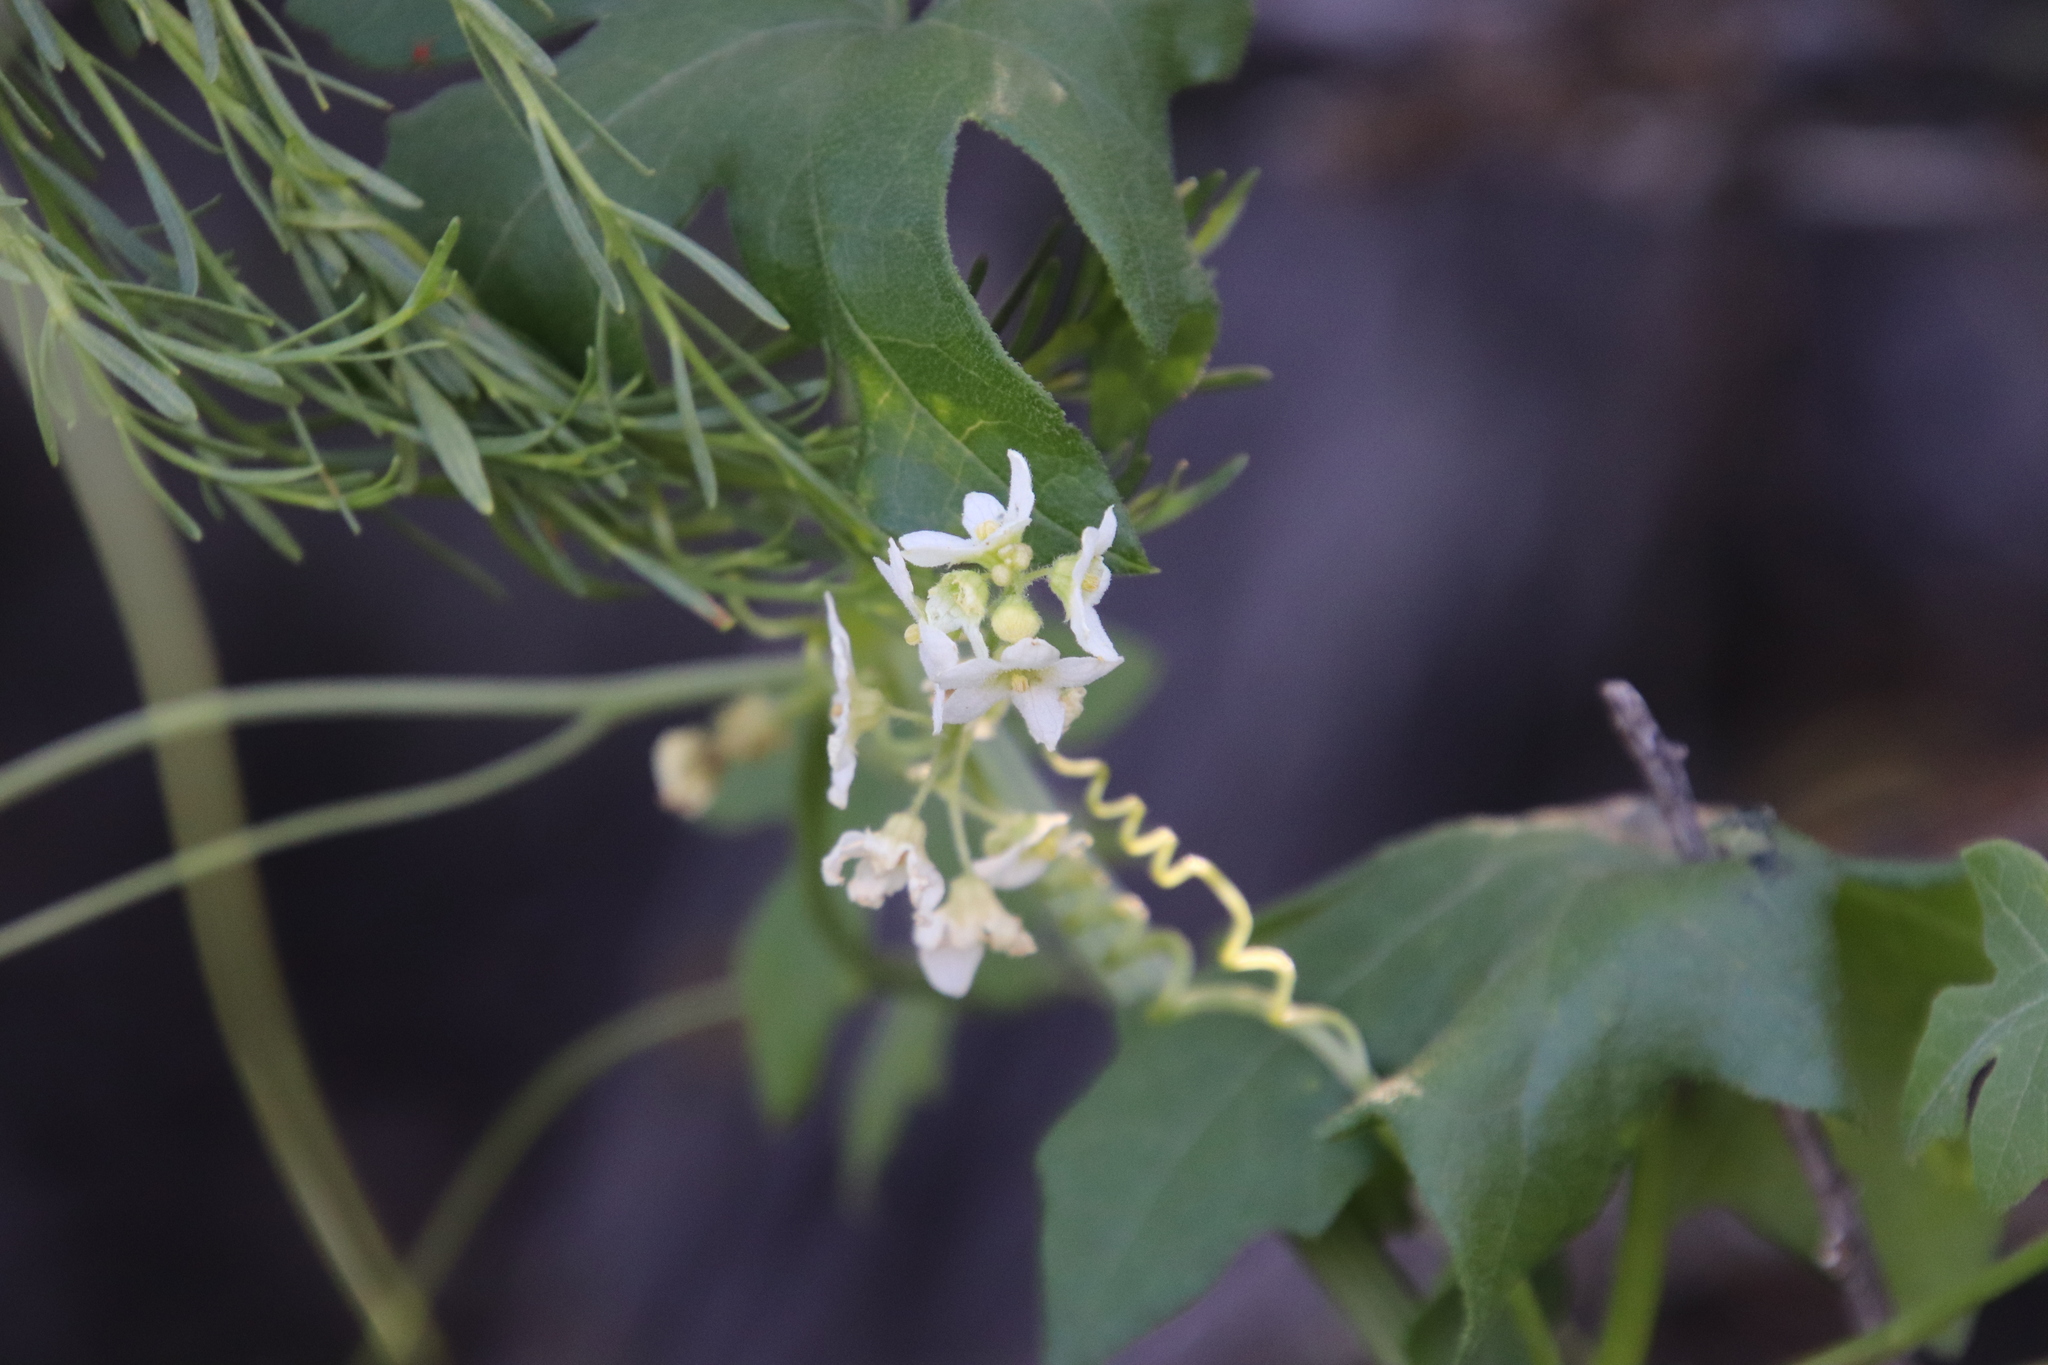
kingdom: Plantae
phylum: Tracheophyta
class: Magnoliopsida
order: Cucurbitales
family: Cucurbitaceae
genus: Marah
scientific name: Marah macrocarpa
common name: Cucamonga manroot
